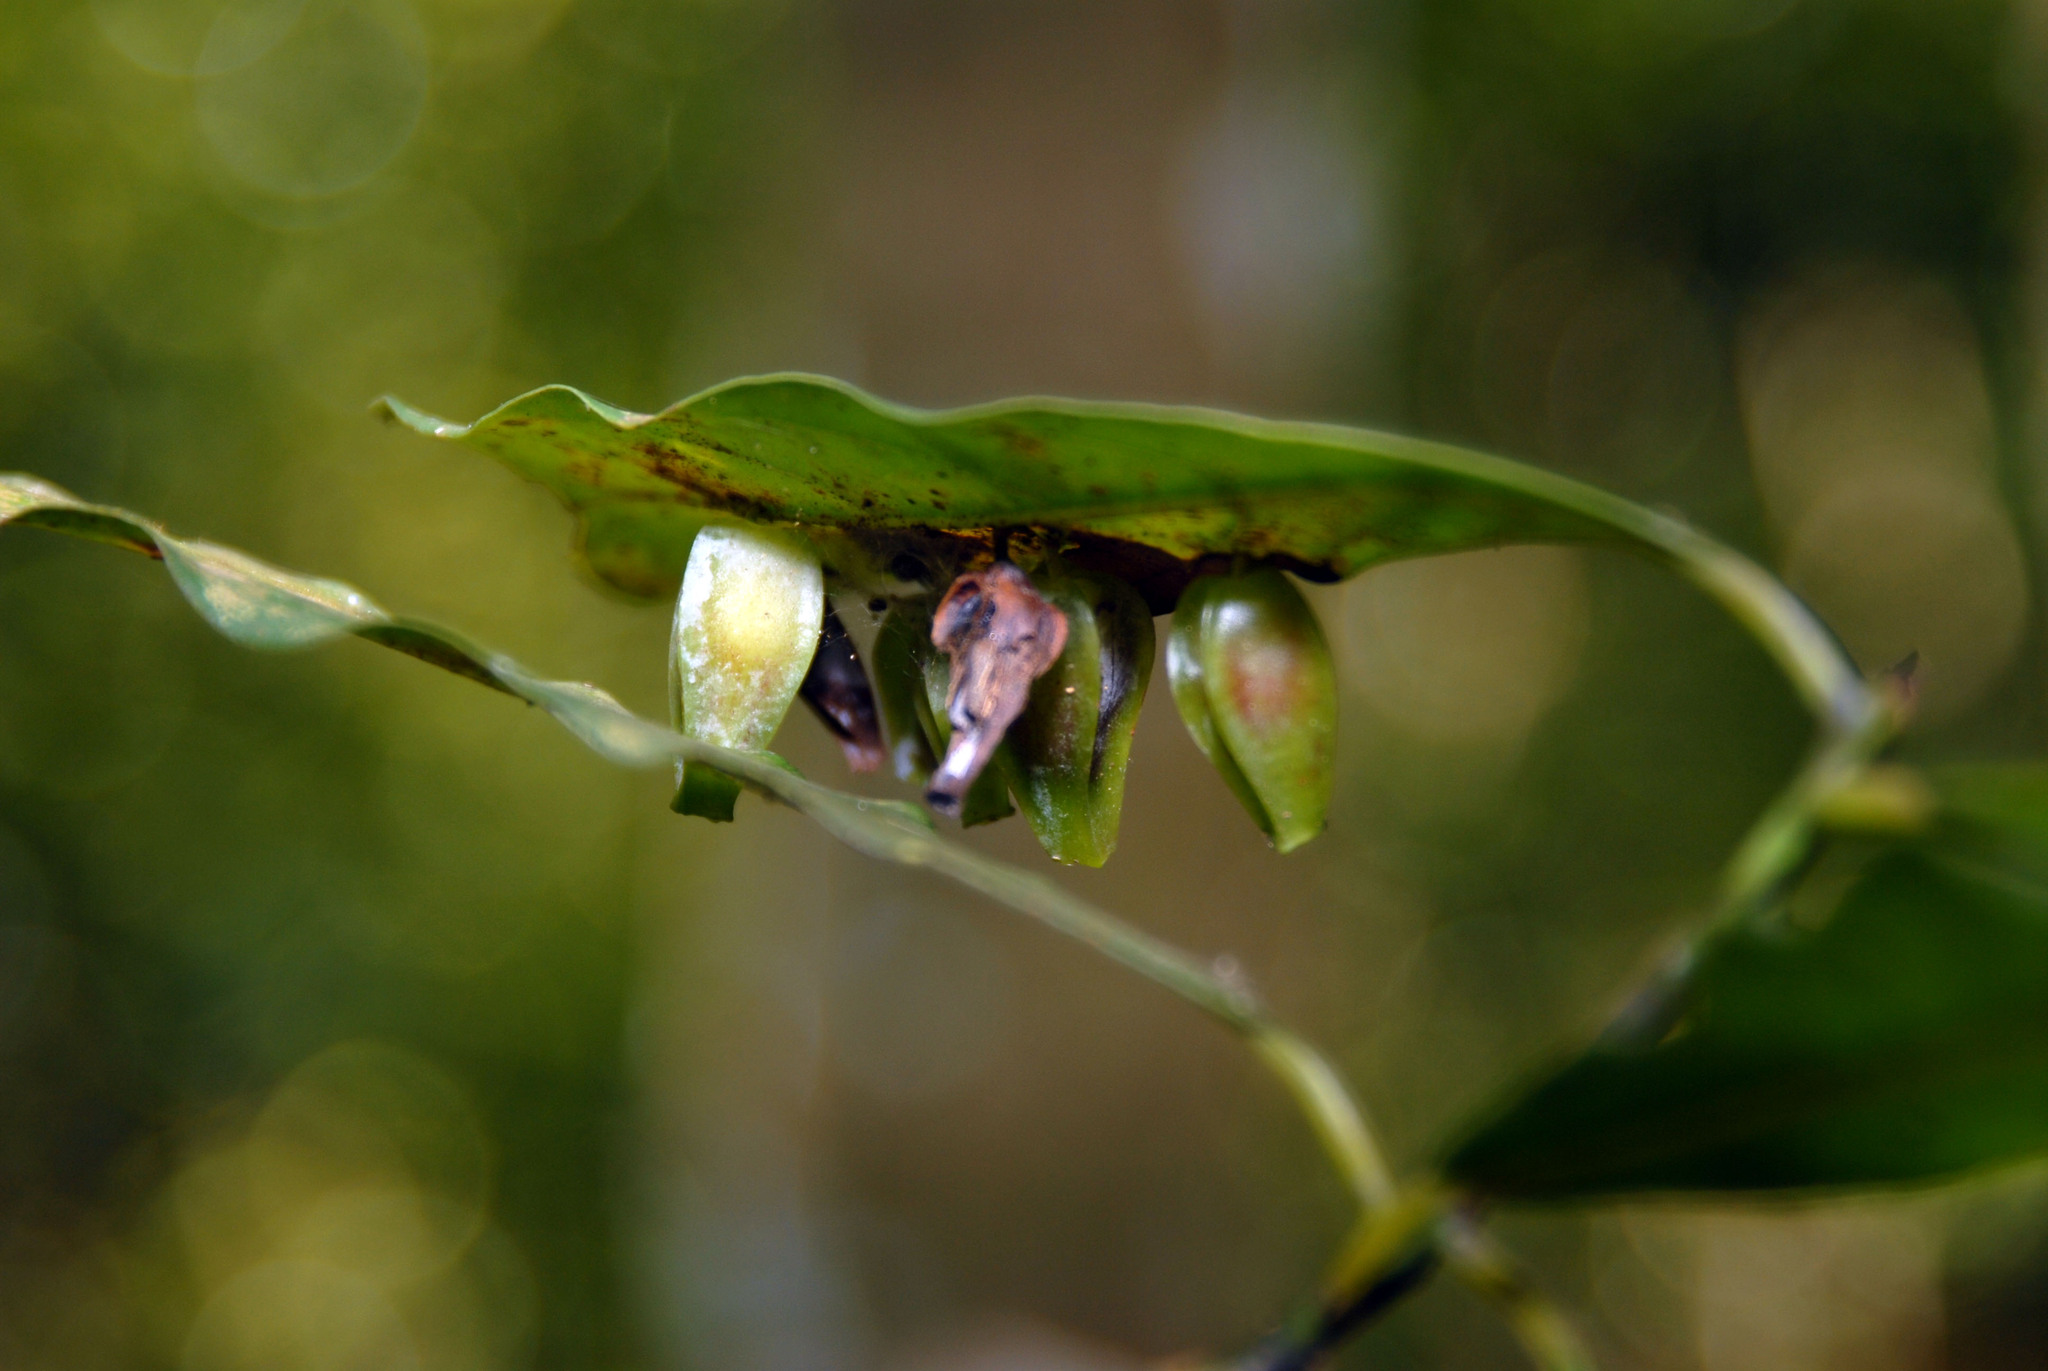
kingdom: Animalia
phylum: Arthropoda
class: Insecta
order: Diptera
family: Cecidomyiidae
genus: Daphnephila
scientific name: Daphnephila urnicola
